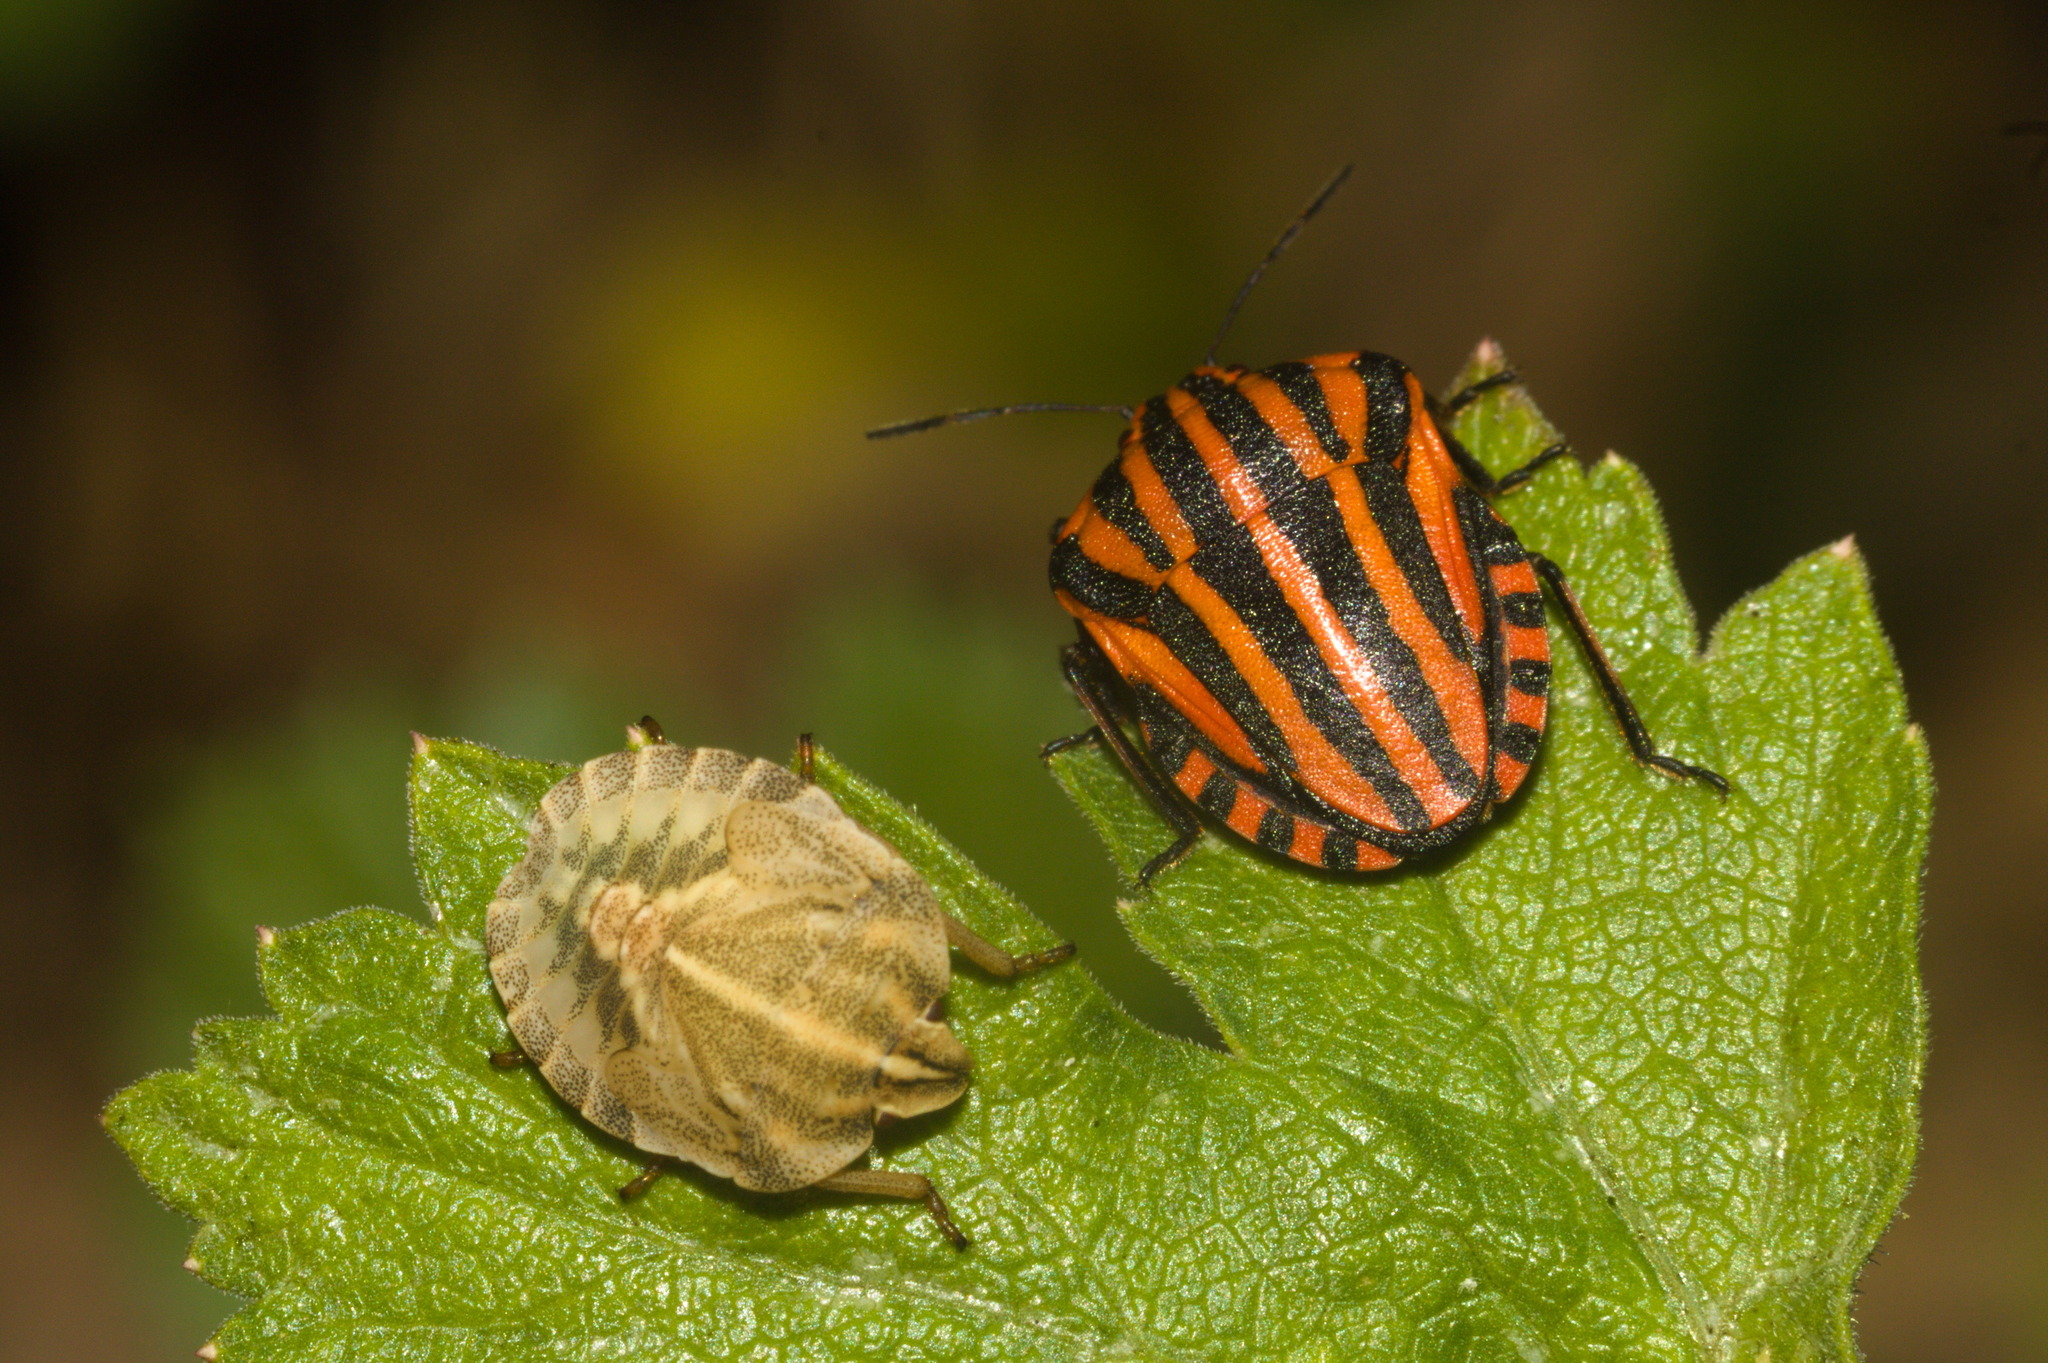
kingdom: Animalia
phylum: Arthropoda
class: Insecta
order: Hemiptera
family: Pentatomidae
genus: Graphosoma
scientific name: Graphosoma italicum
